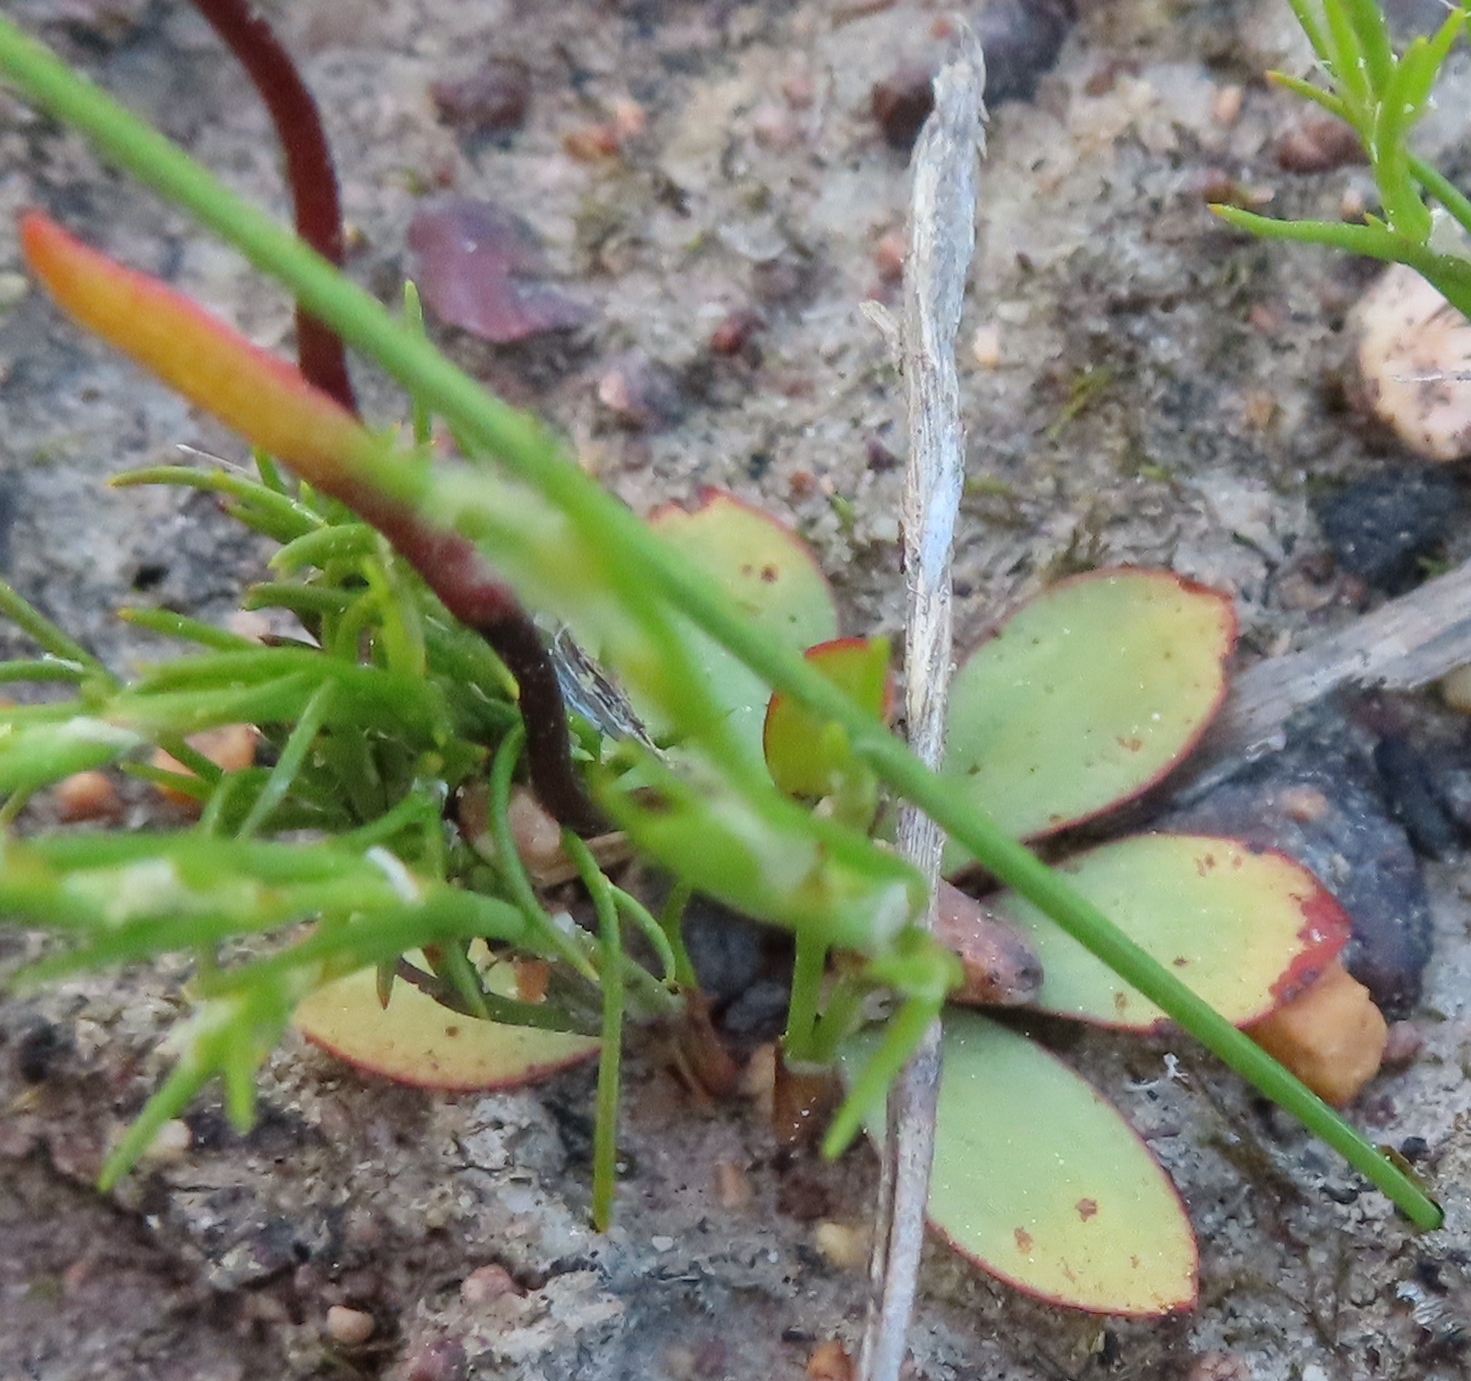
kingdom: Plantae
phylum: Tracheophyta
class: Liliopsida
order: Asparagales
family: Orchidaceae
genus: Disa
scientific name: Disa biflora
